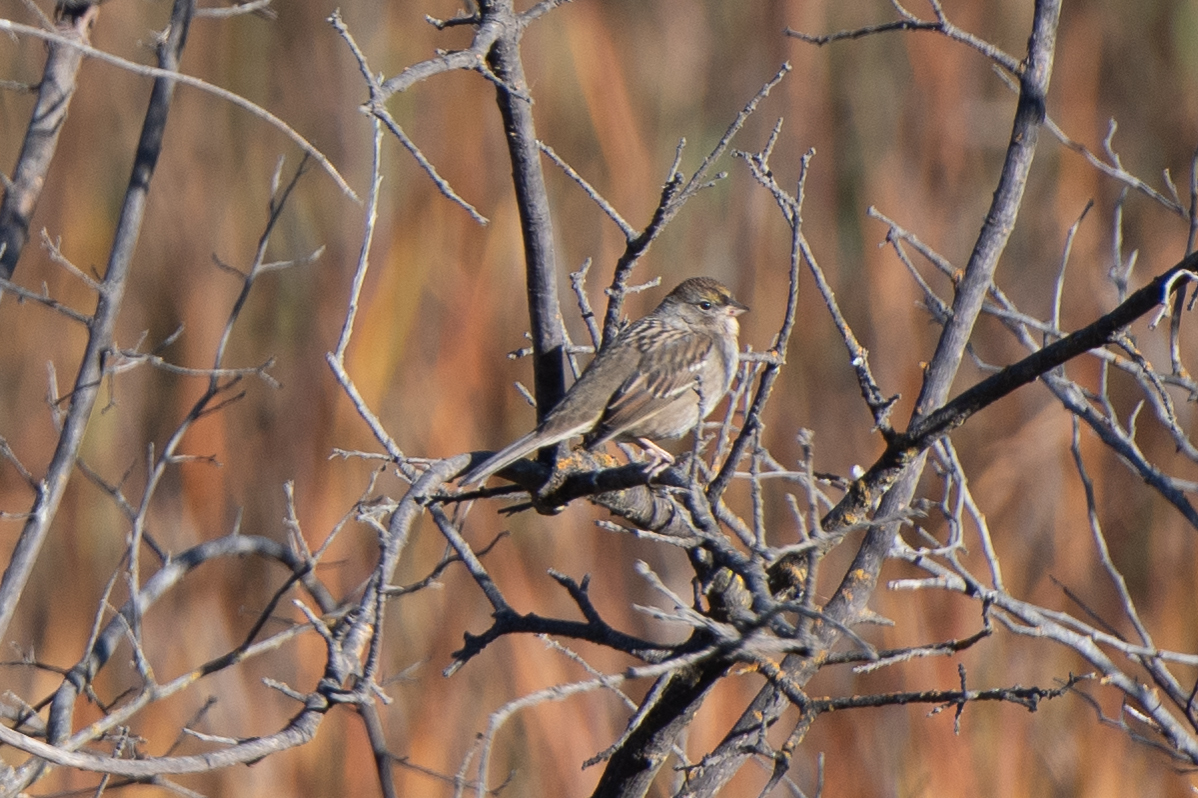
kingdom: Animalia
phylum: Chordata
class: Aves
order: Passeriformes
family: Passerellidae
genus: Zonotrichia
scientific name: Zonotrichia atricapilla
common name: Golden-crowned sparrow
